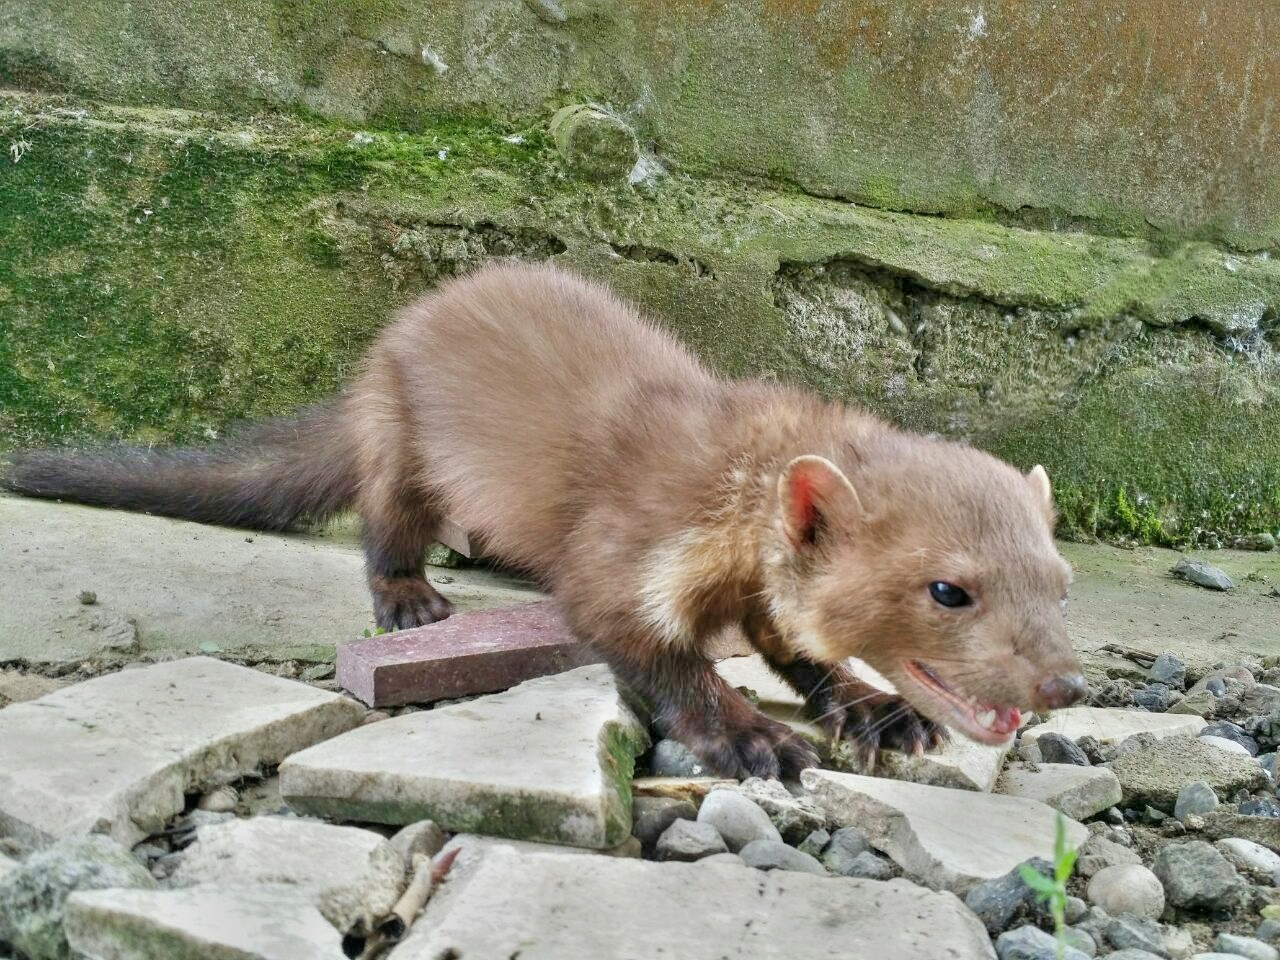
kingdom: Animalia
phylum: Chordata
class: Mammalia
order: Carnivora
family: Mustelidae
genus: Martes
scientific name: Martes foina
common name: Beech marten
